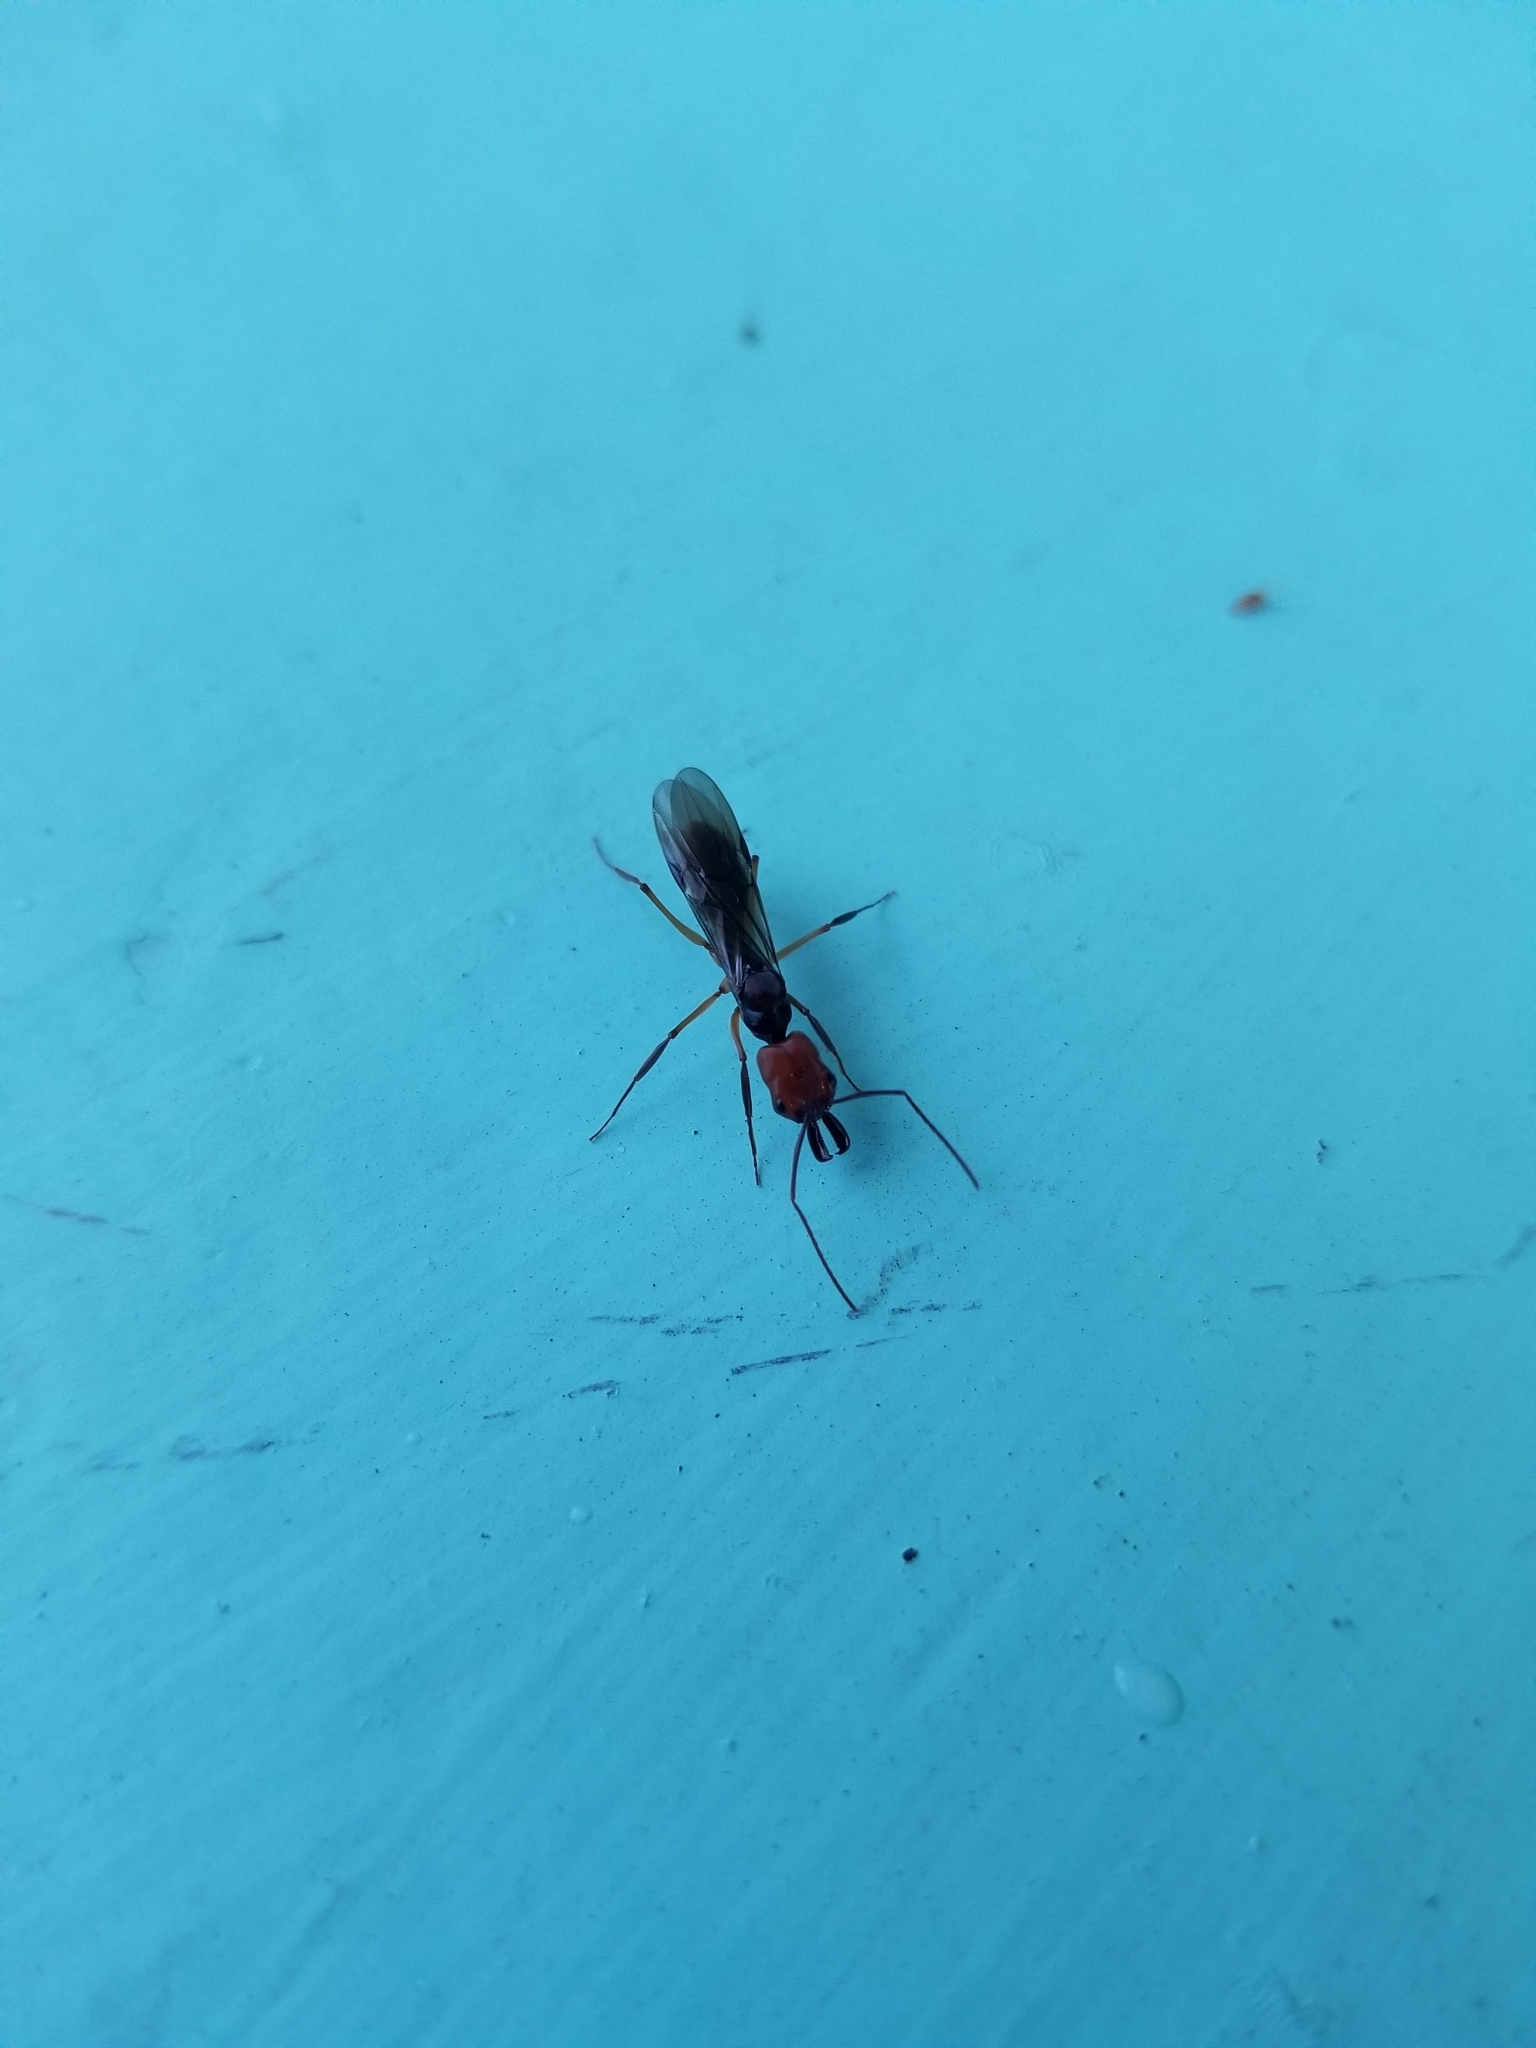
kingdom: Animalia
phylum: Arthropoda
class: Insecta
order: Hymenoptera
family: Formicidae
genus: Odontomachus
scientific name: Odontomachus erythrocephalus
